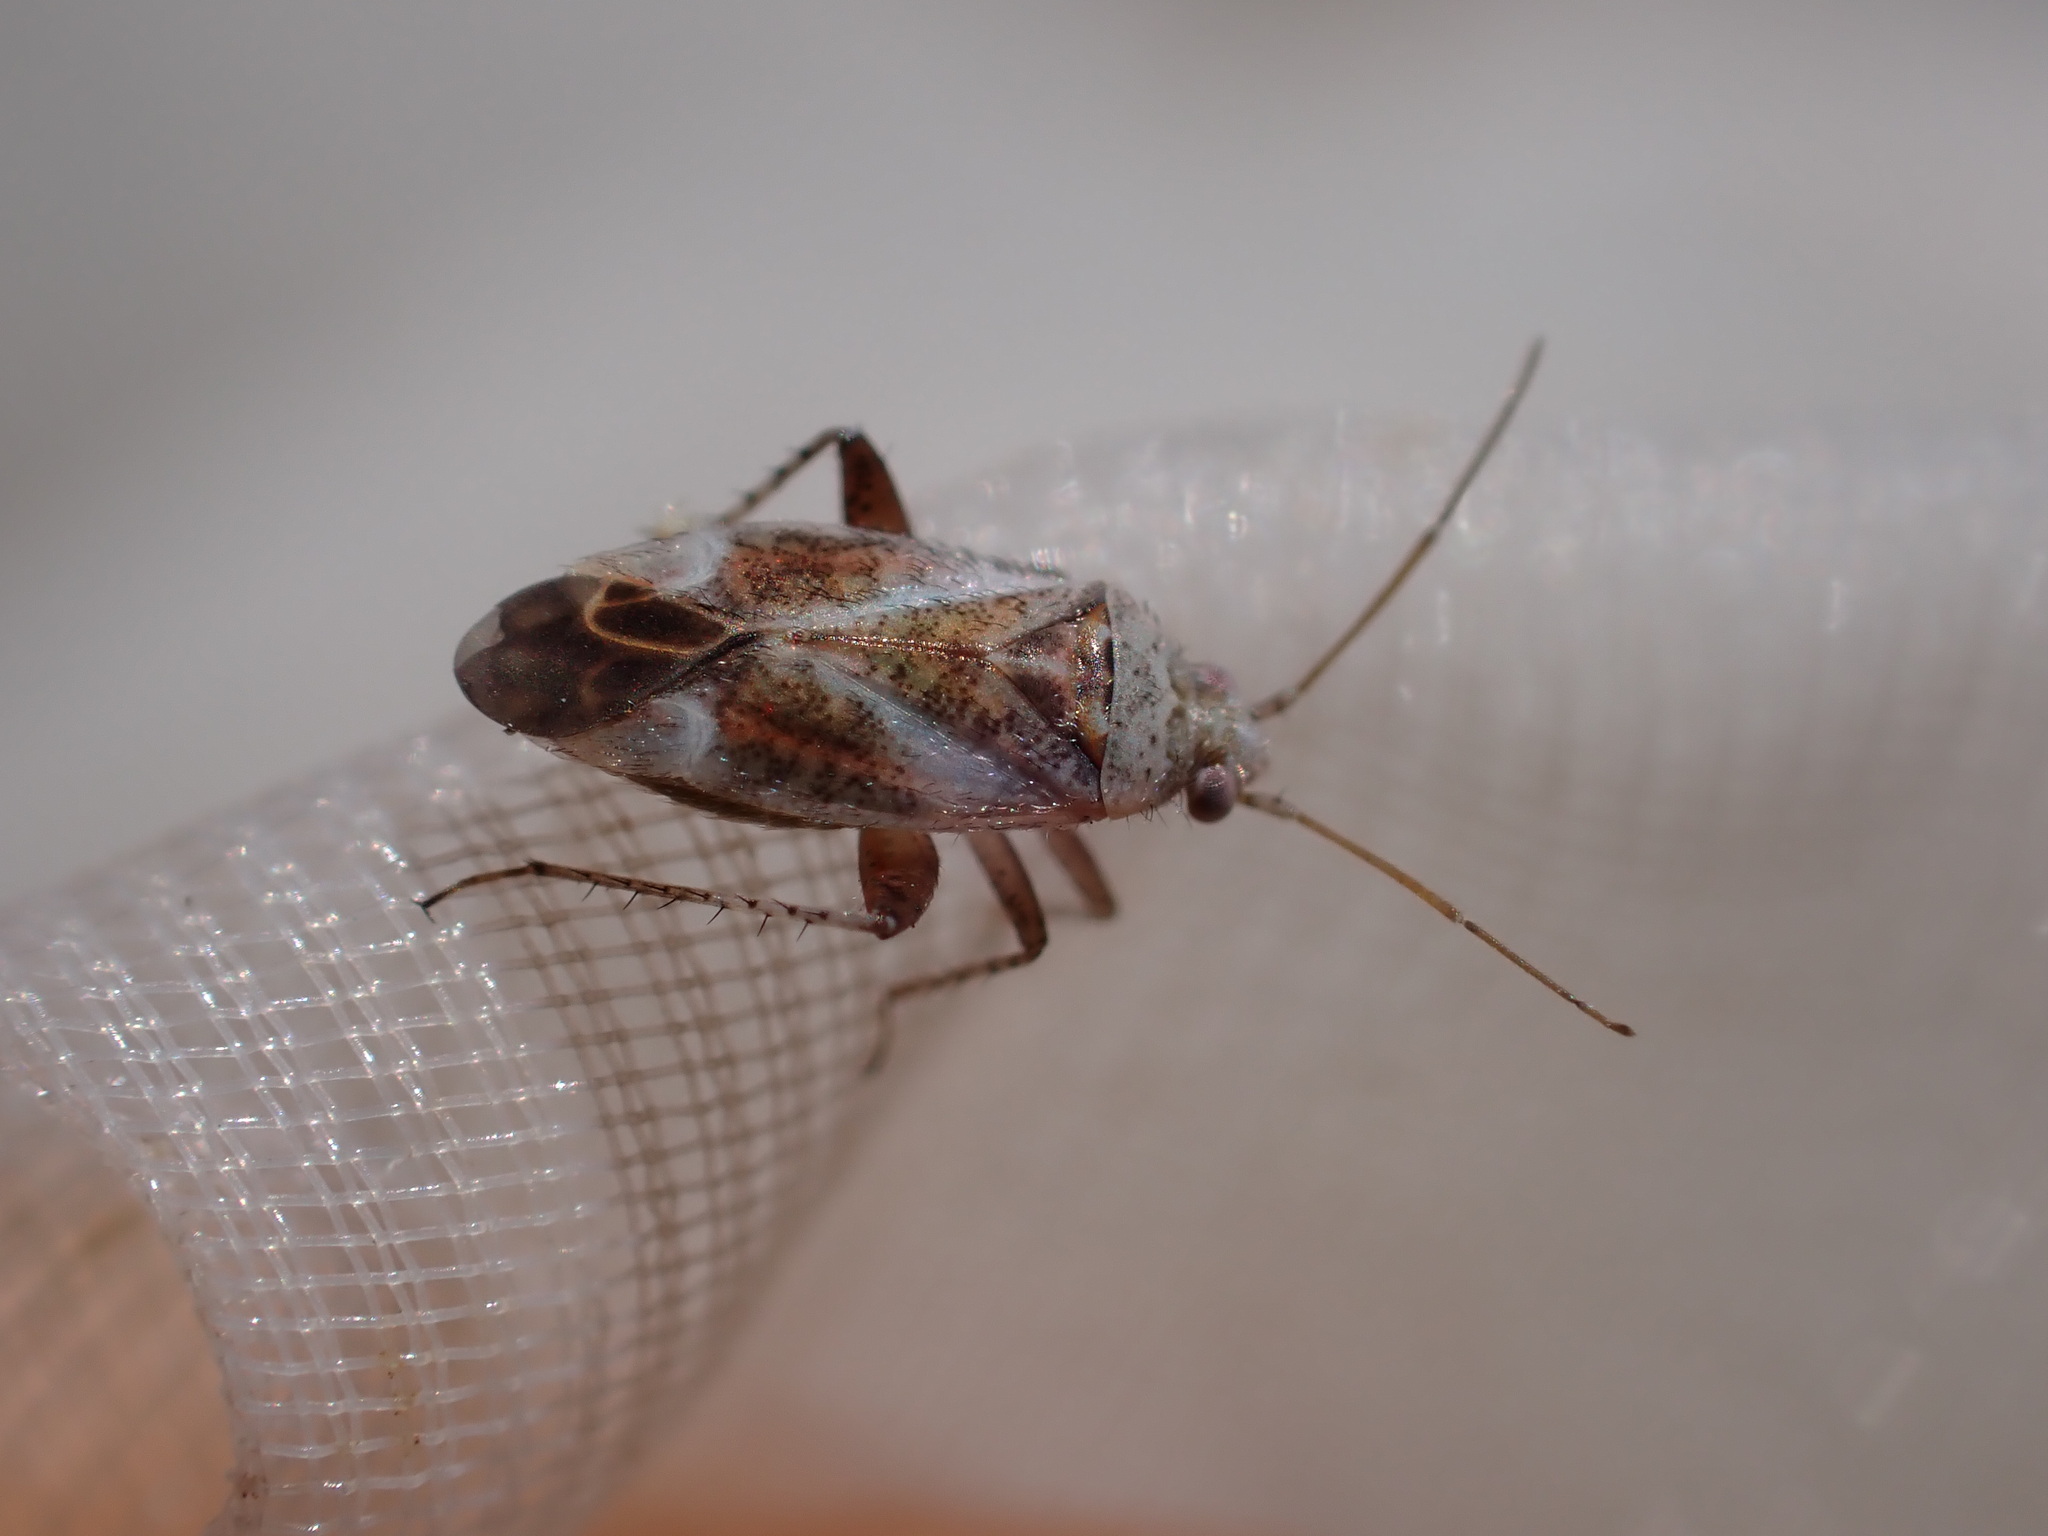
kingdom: Animalia
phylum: Arthropoda
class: Insecta
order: Hemiptera
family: Miridae
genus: Compsidolon
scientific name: Compsidolon crotchi
